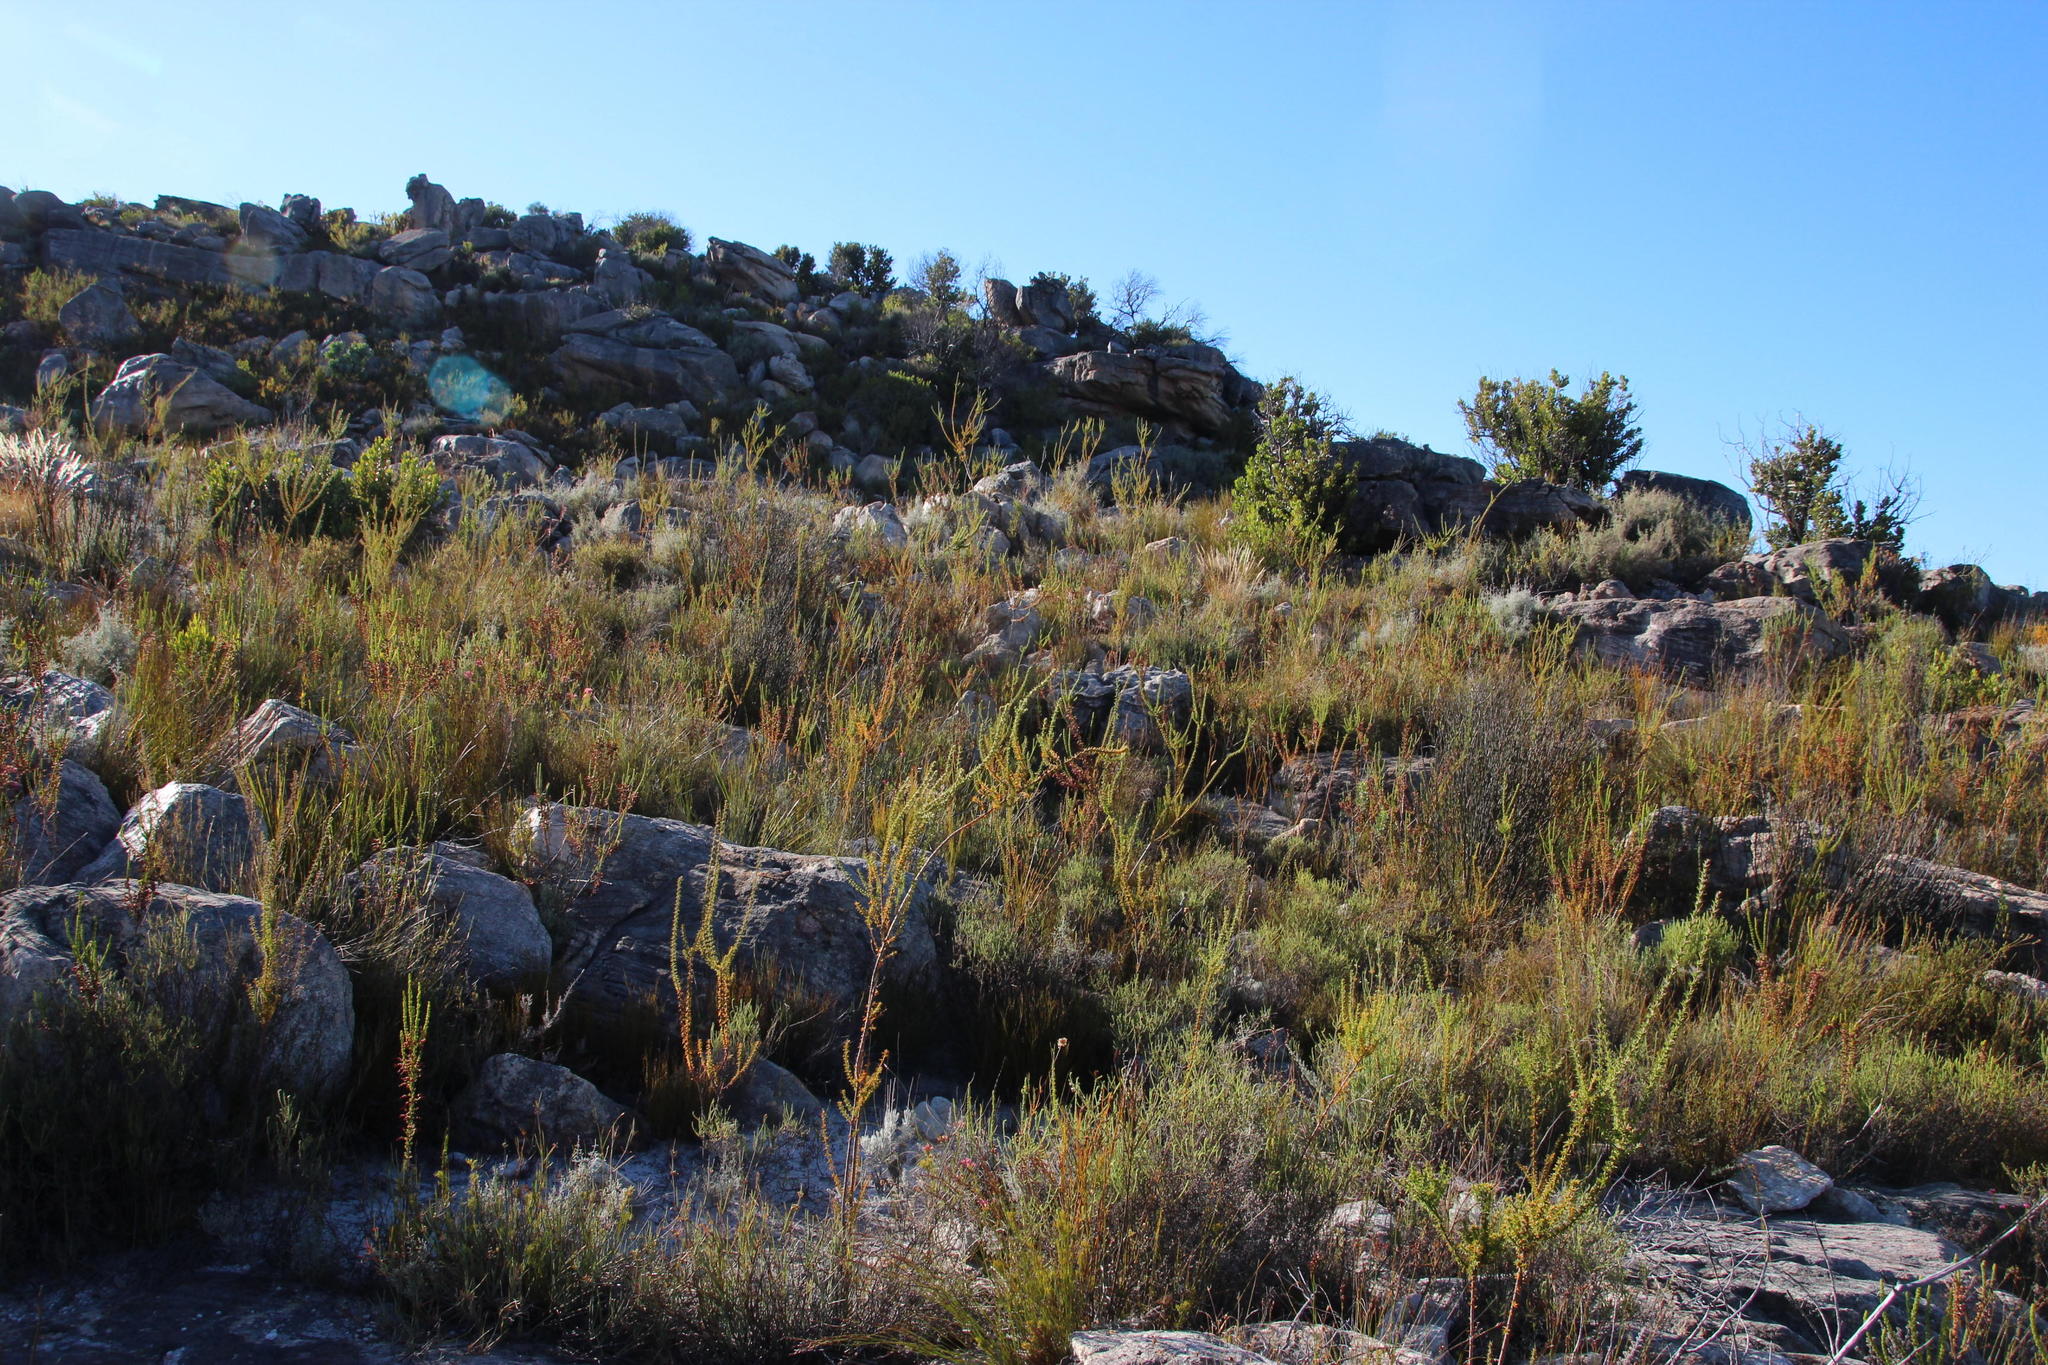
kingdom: Plantae
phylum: Tracheophyta
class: Magnoliopsida
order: Fabales
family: Polygalaceae
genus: Muraltia
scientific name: Muraltia heisteria
